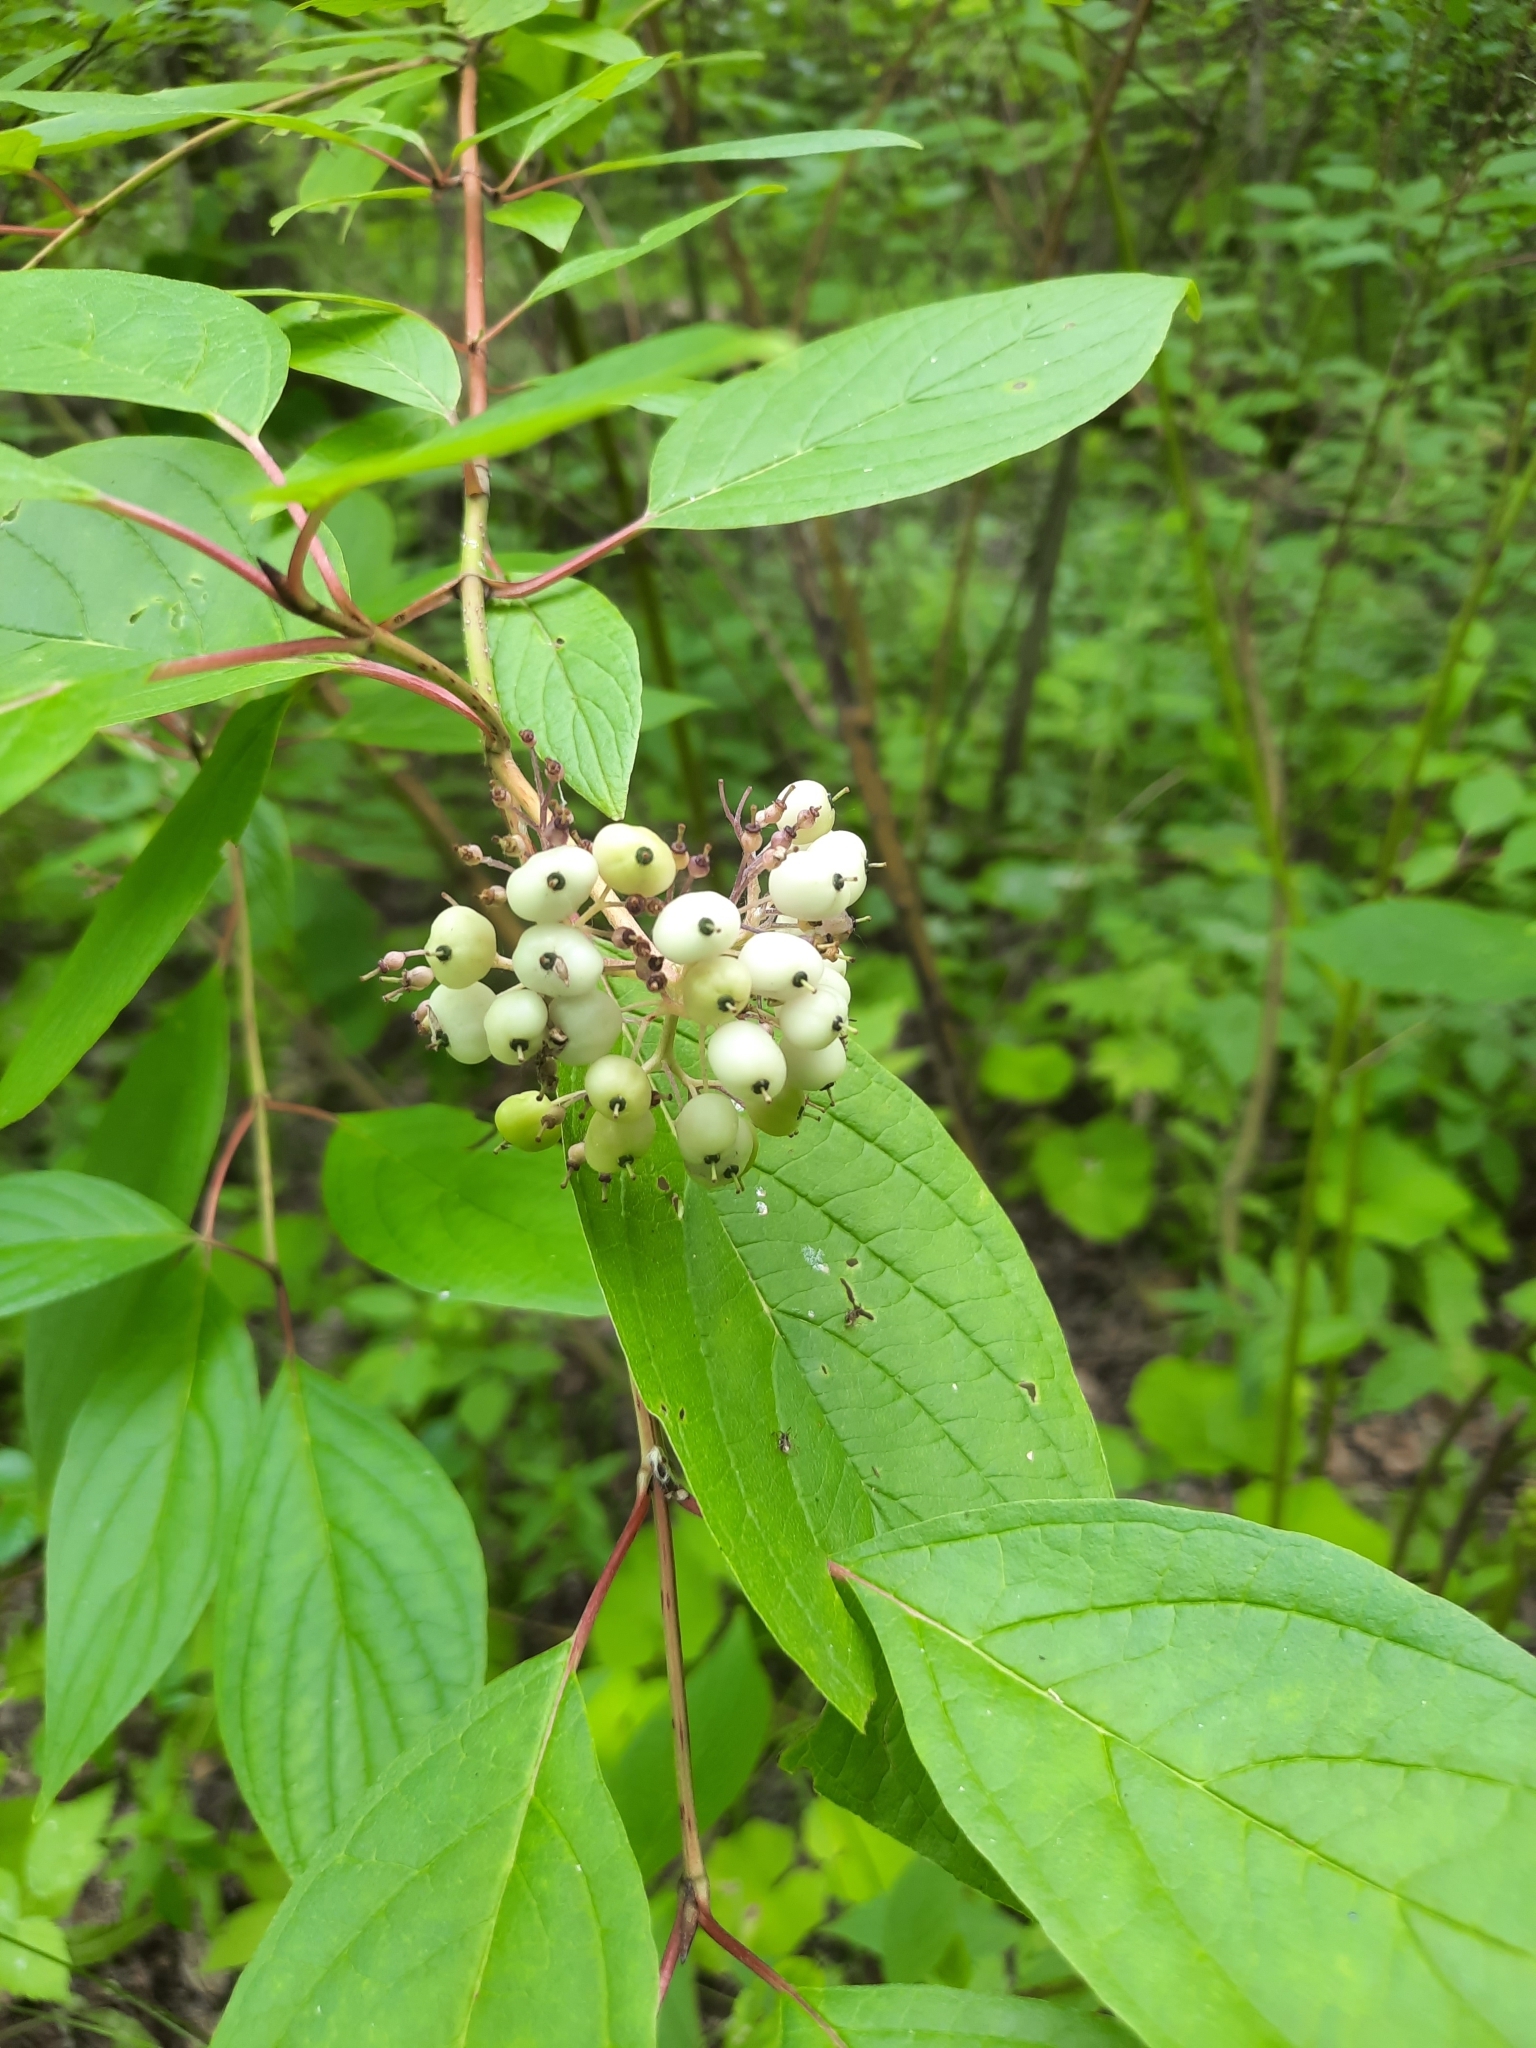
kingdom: Plantae
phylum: Tracheophyta
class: Magnoliopsida
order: Cornales
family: Cornaceae
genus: Cornus
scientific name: Cornus alba
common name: White dogwood
